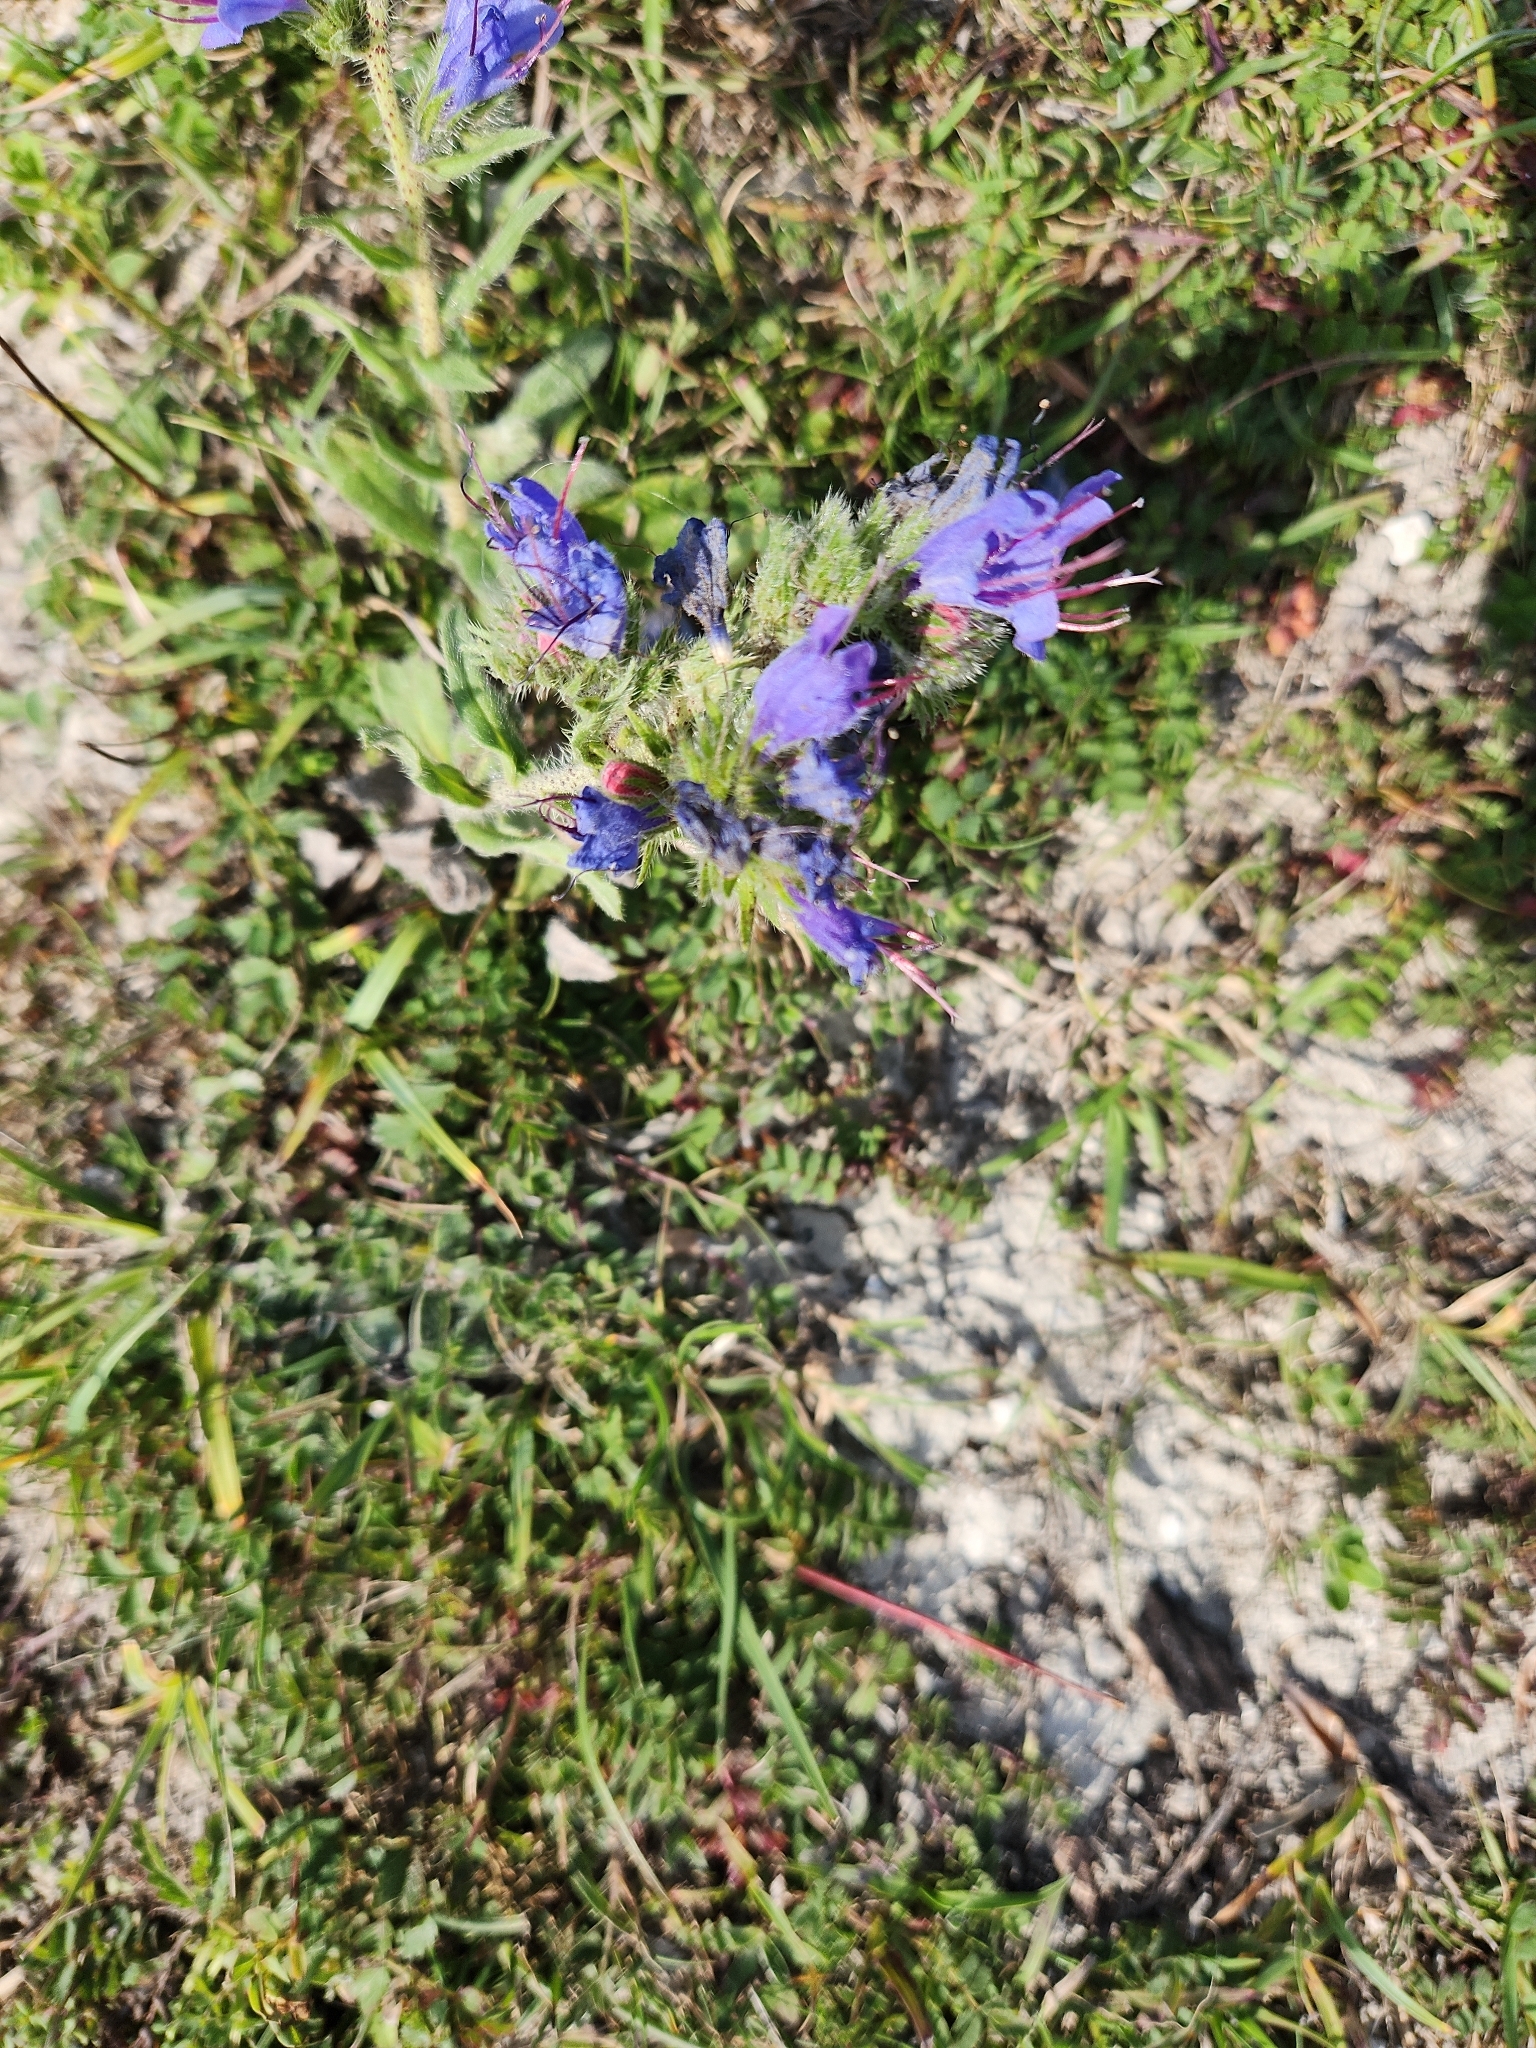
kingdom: Plantae
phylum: Tracheophyta
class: Magnoliopsida
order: Boraginales
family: Boraginaceae
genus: Echium
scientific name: Echium vulgare
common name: Common viper's bugloss
